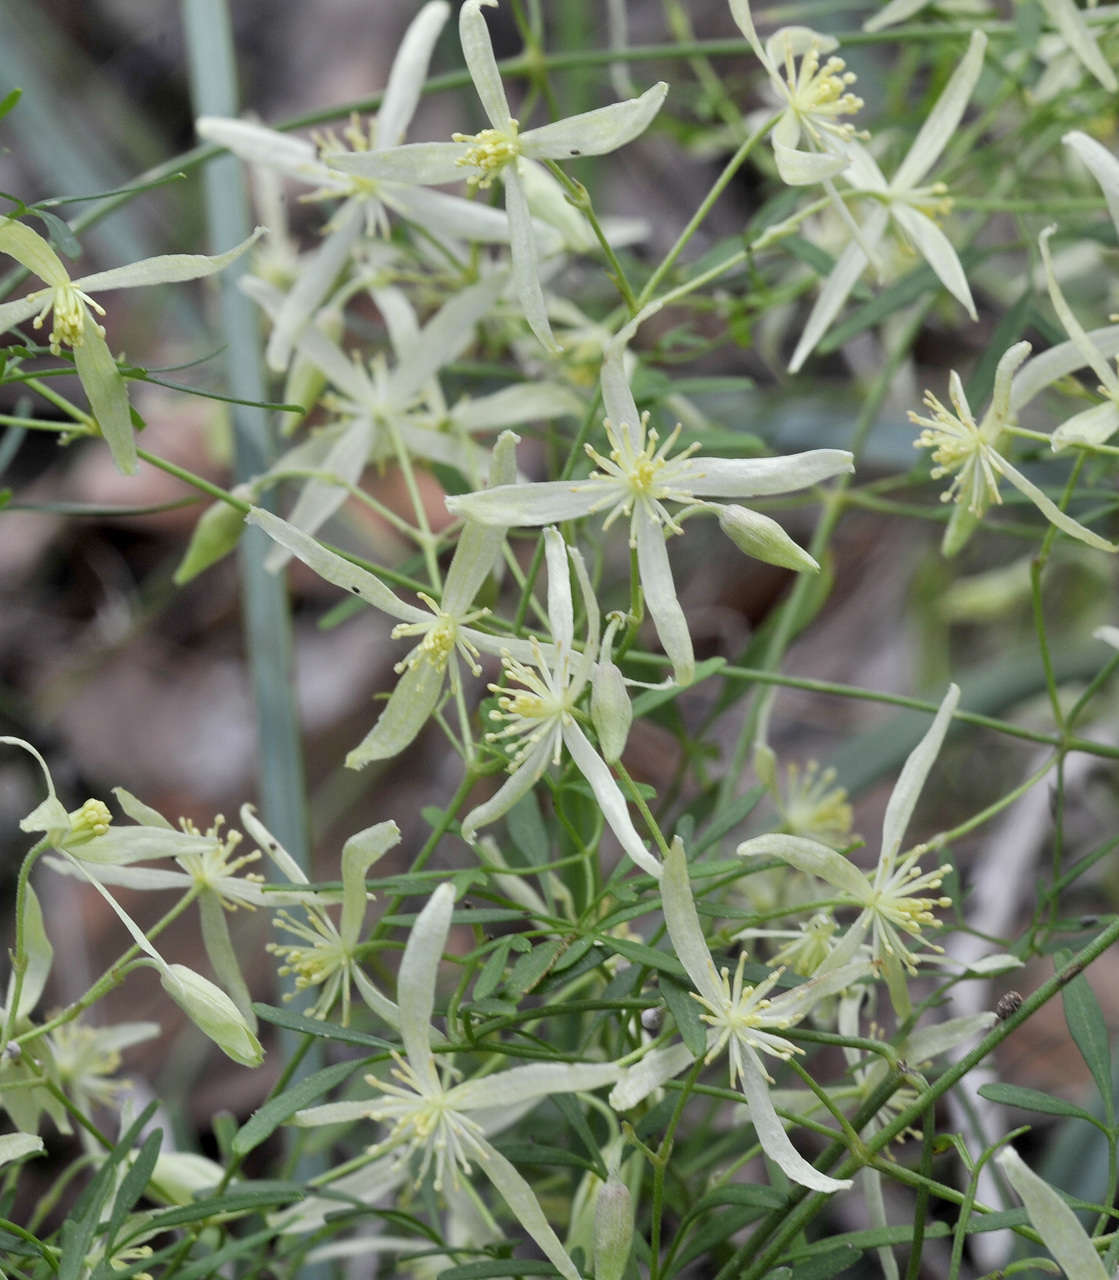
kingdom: Plantae
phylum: Tracheophyta
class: Magnoliopsida
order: Ranunculales
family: Ranunculaceae
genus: Clematis
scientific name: Clematis microphylla
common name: Headachevine
